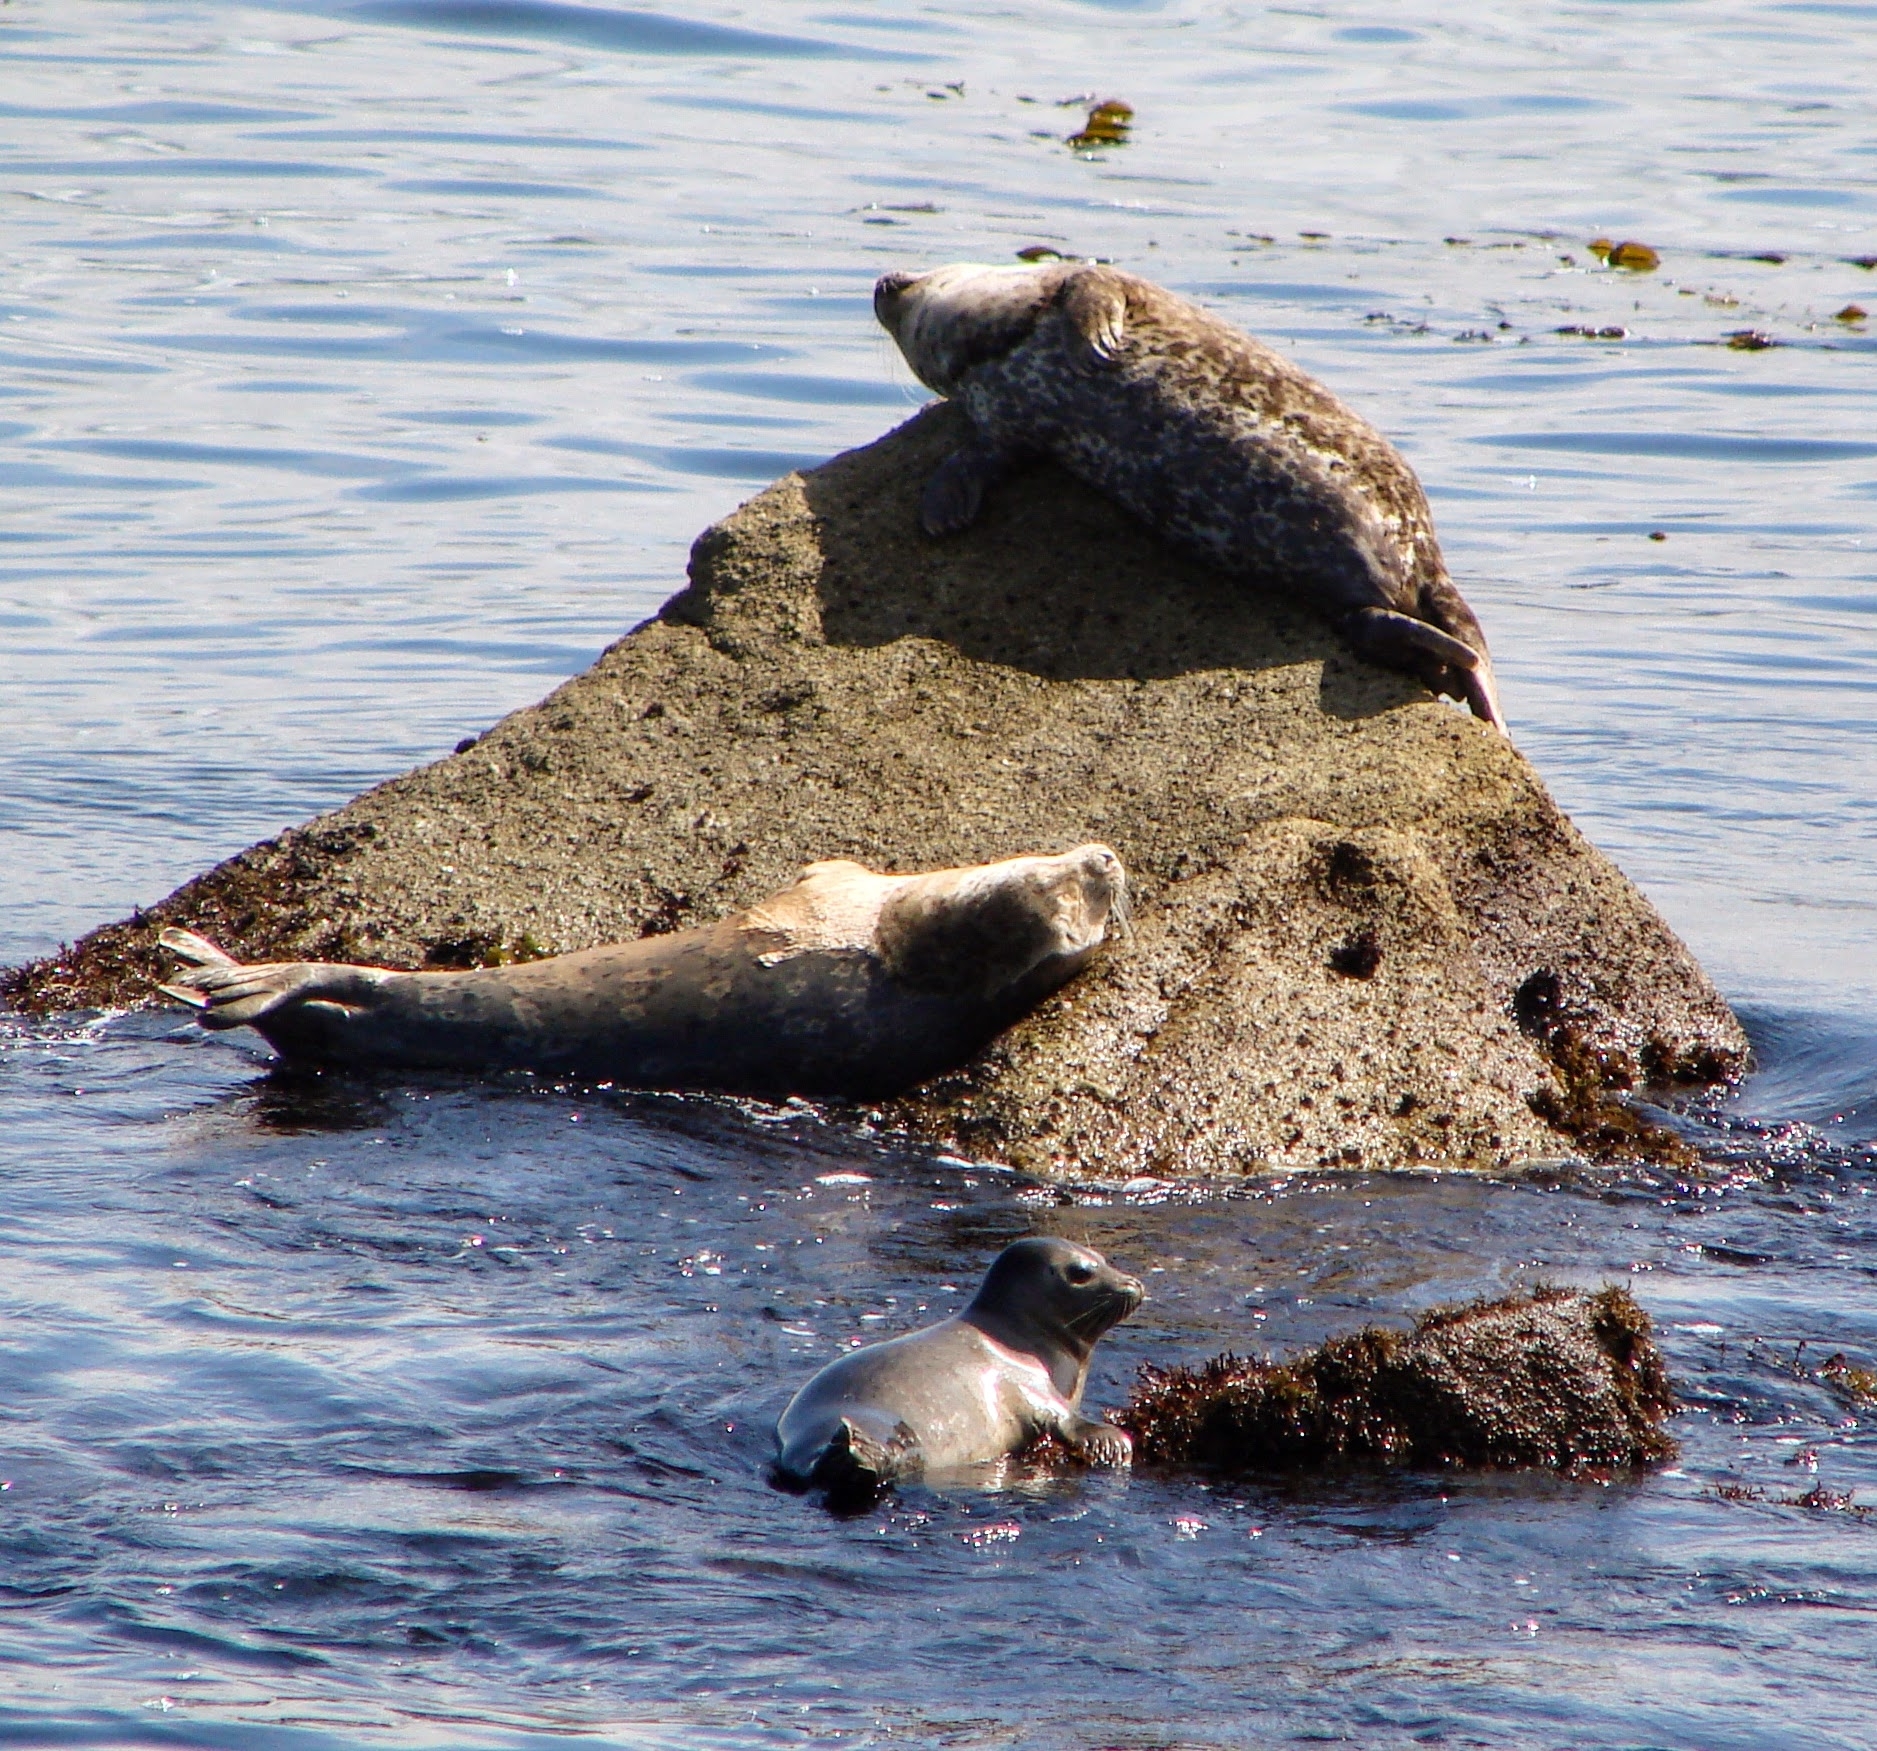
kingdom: Animalia
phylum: Chordata
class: Mammalia
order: Carnivora
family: Phocidae
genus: Phoca
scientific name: Phoca vitulina
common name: Harbor seal
